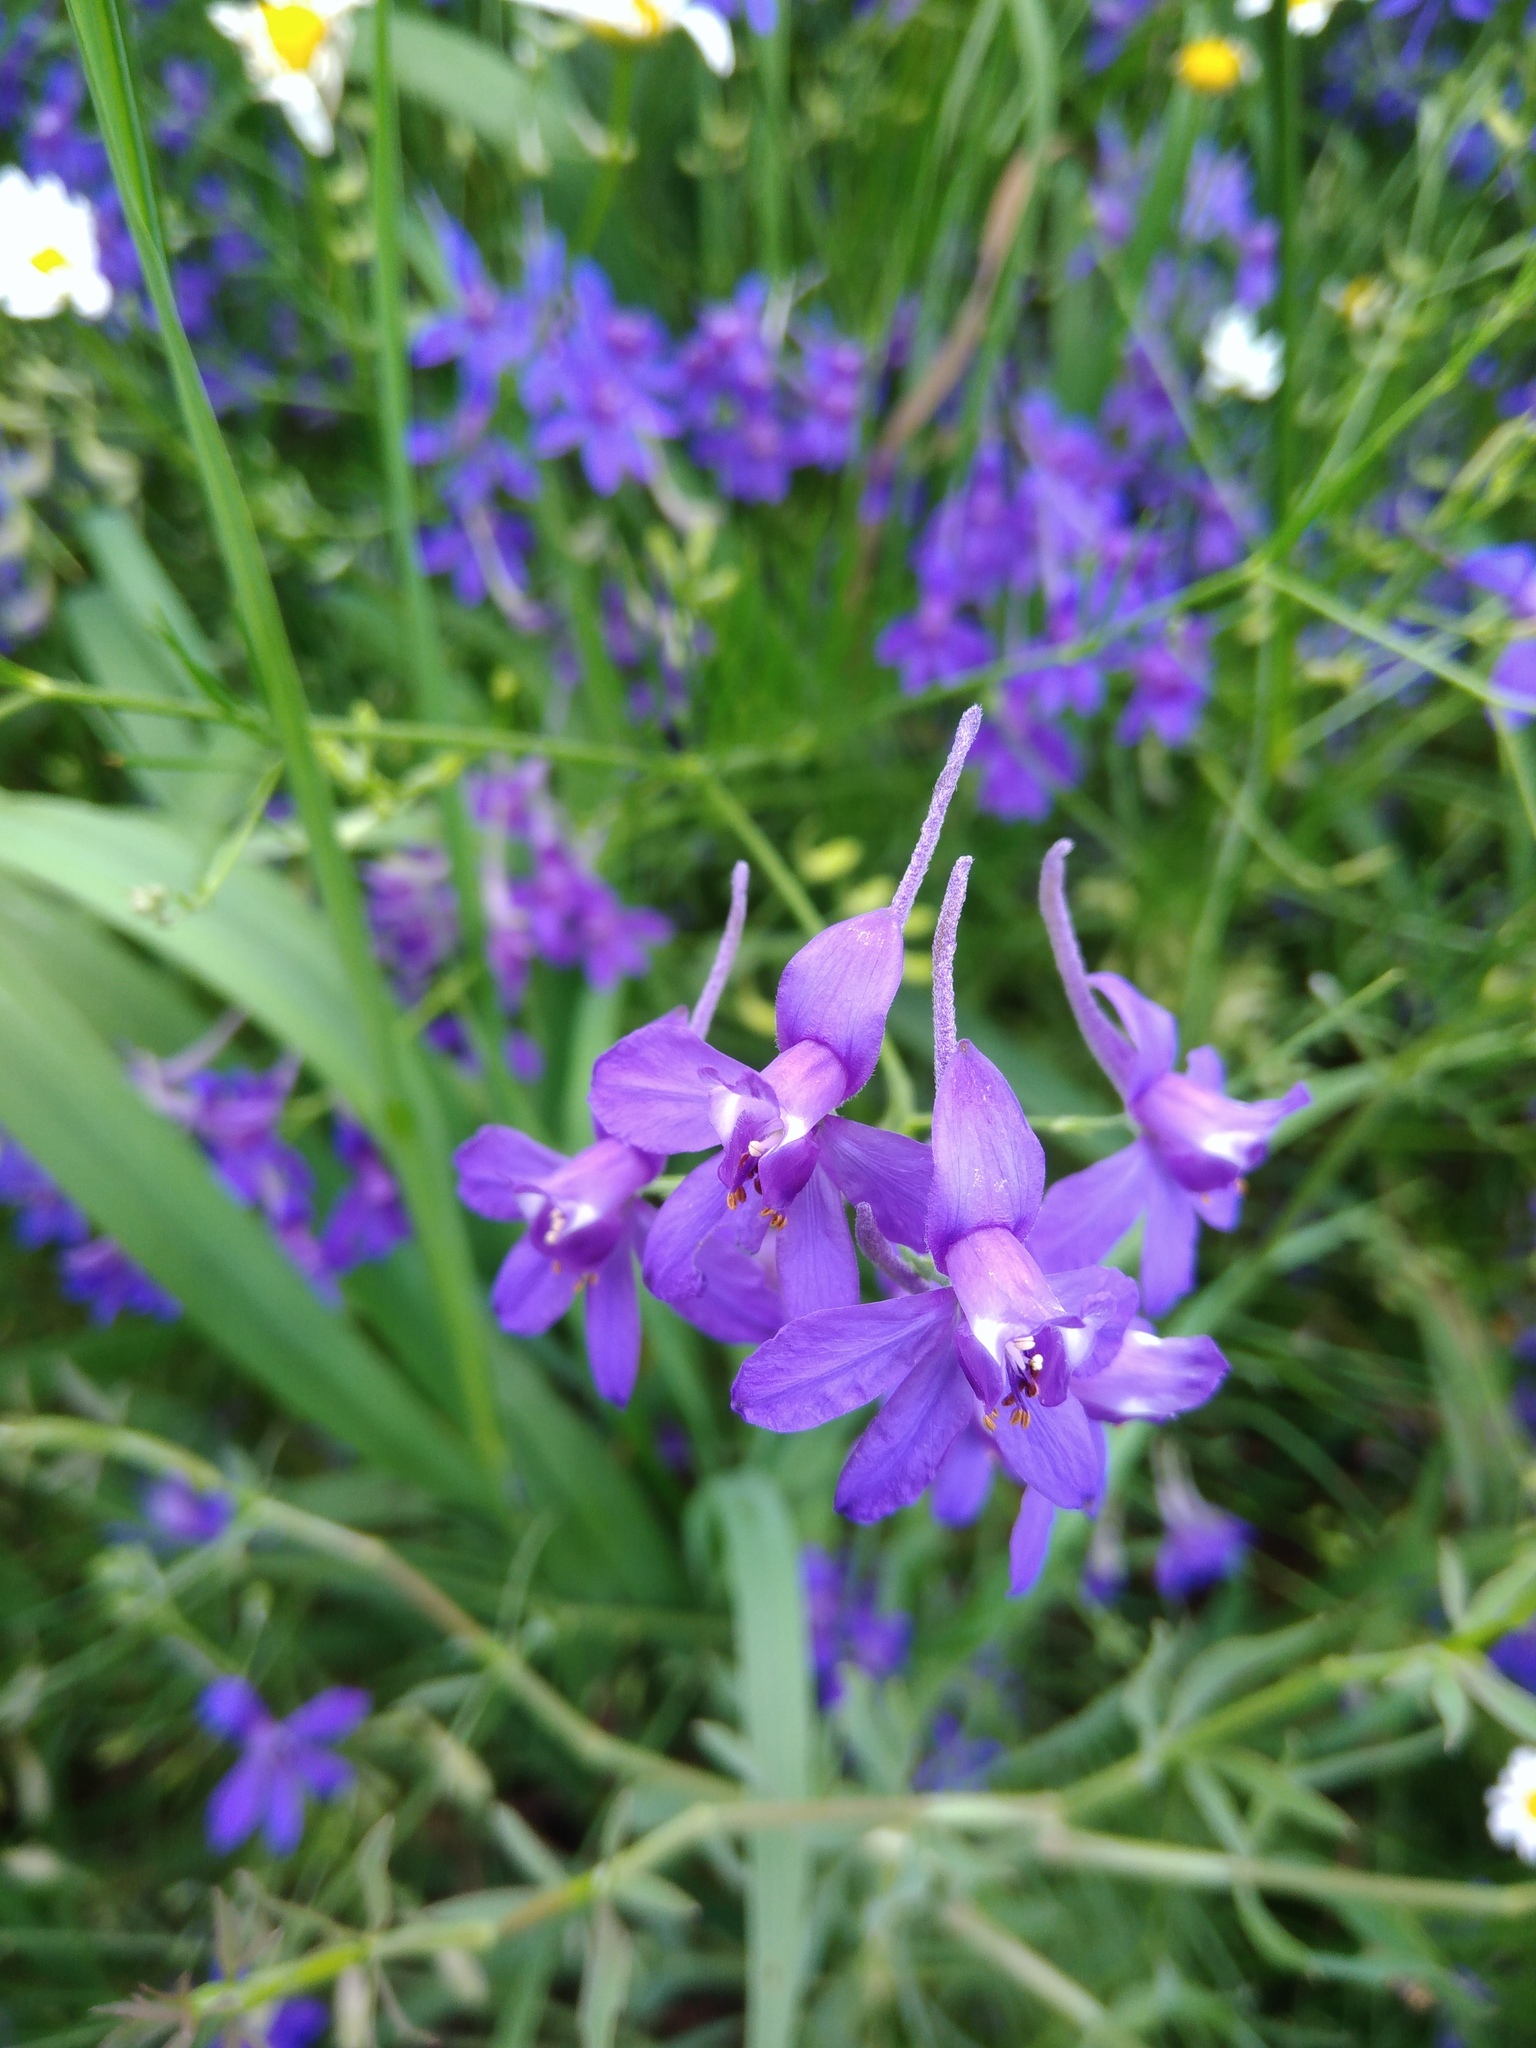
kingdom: Plantae
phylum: Tracheophyta
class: Magnoliopsida
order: Ranunculales
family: Ranunculaceae
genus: Delphinium
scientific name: Delphinium consolida
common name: Branching larkspur
